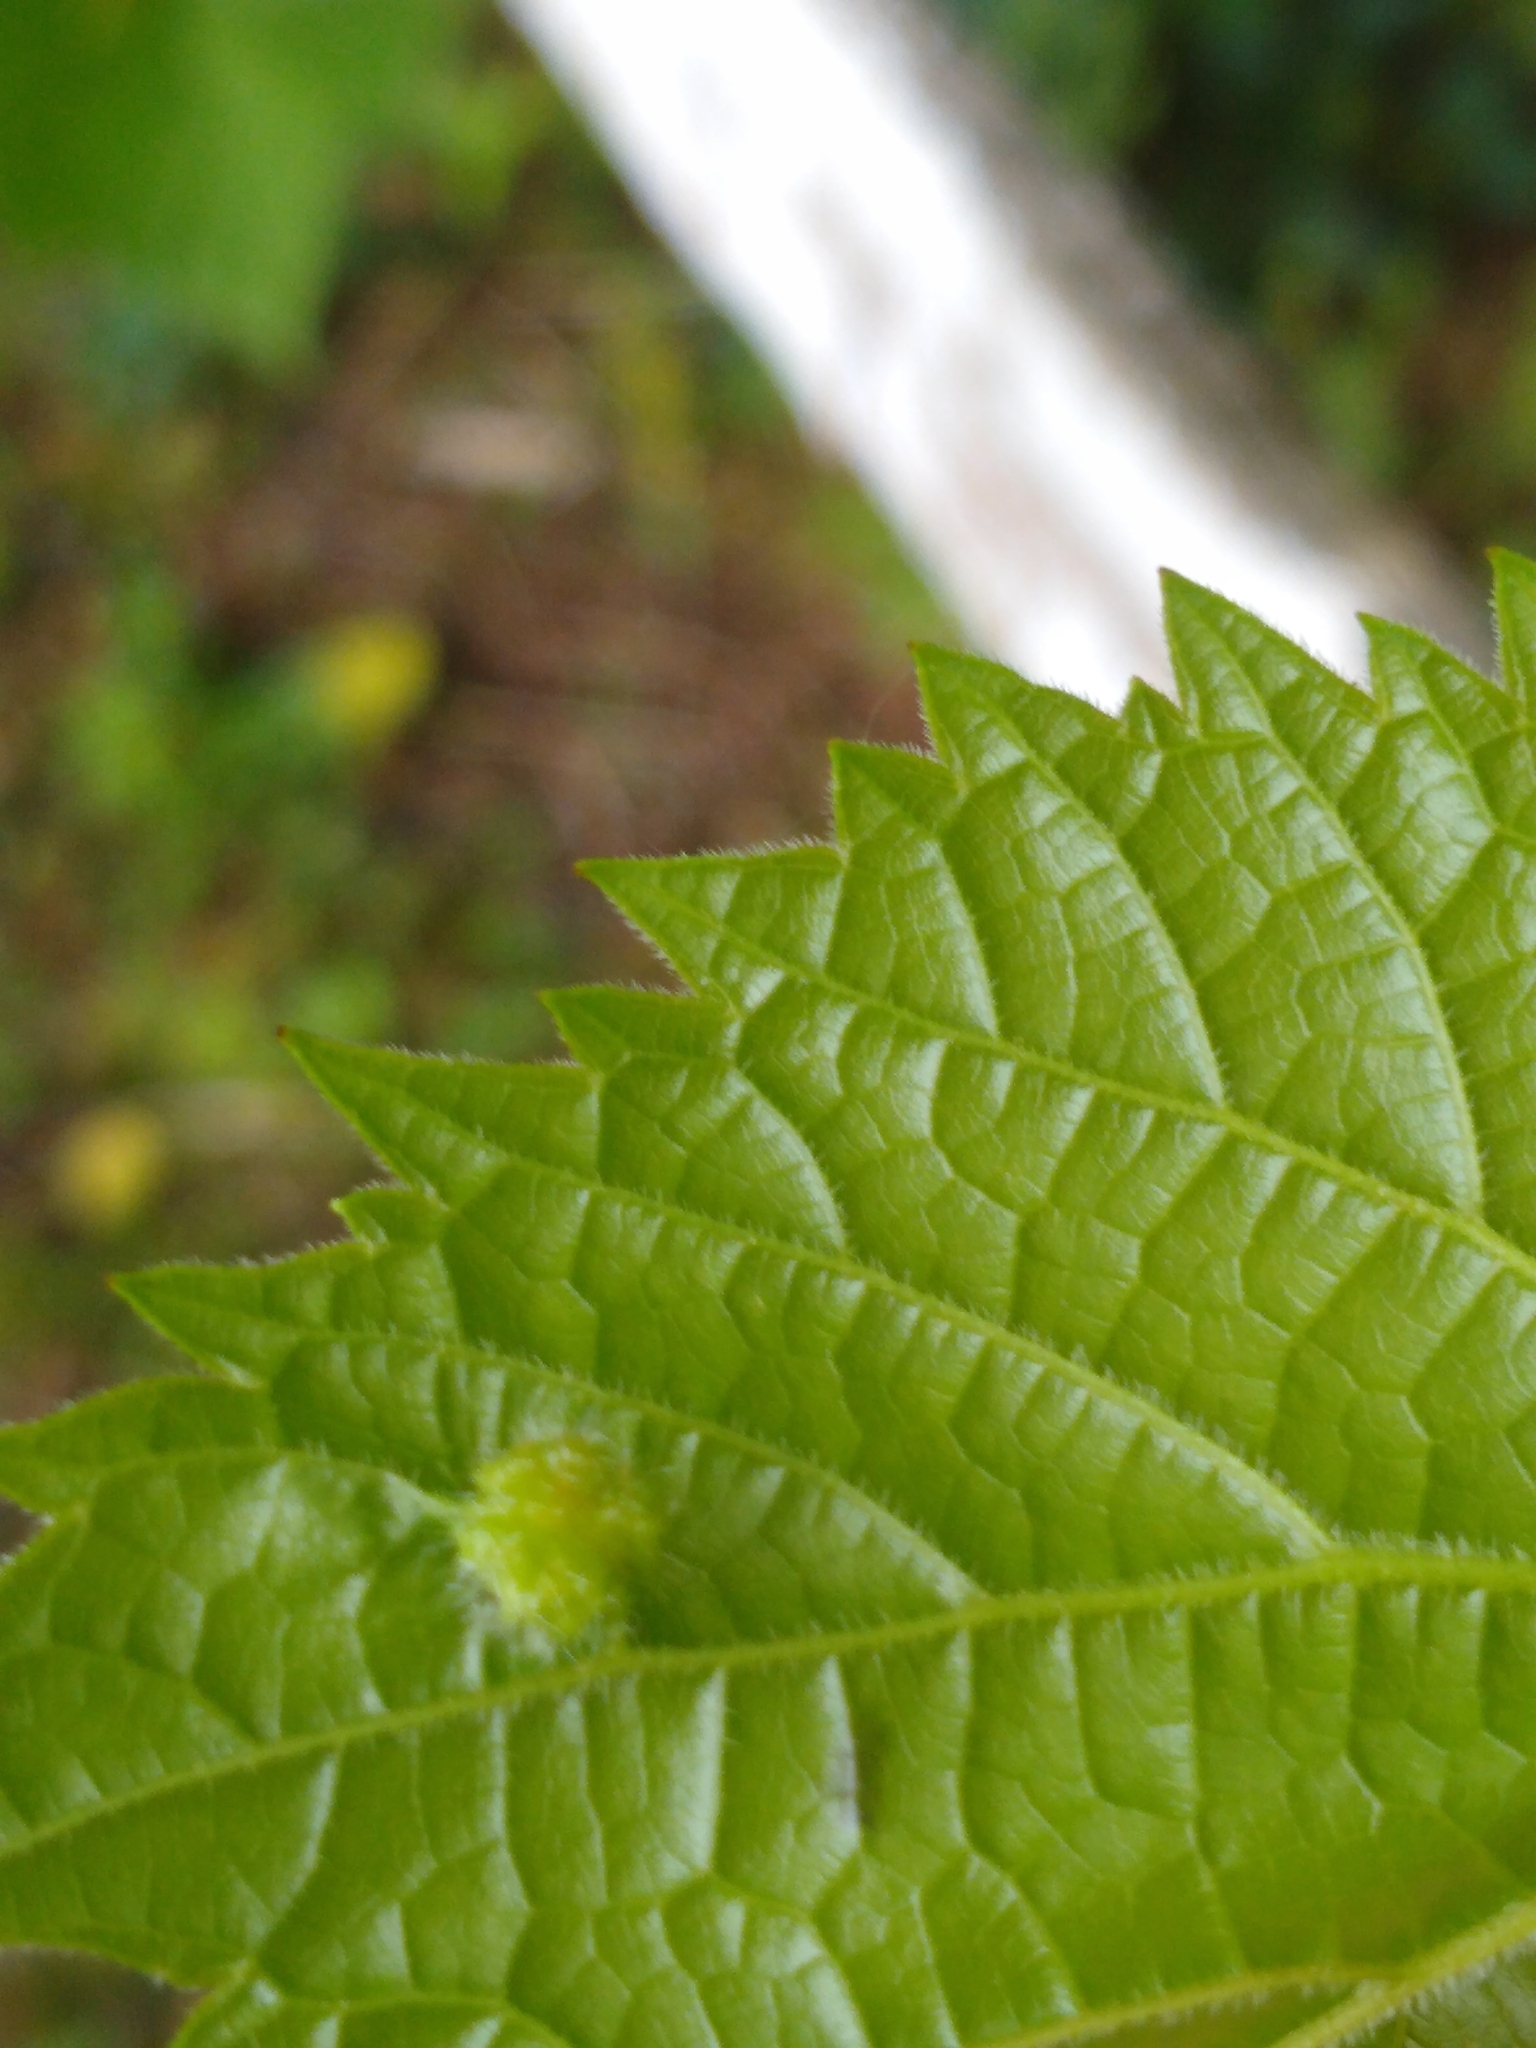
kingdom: Animalia
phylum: Arthropoda
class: Insecta
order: Hemiptera
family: Phylloxeridae
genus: Daktulosphaira
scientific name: Daktulosphaira vitifoliae
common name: Grape phylloxera
